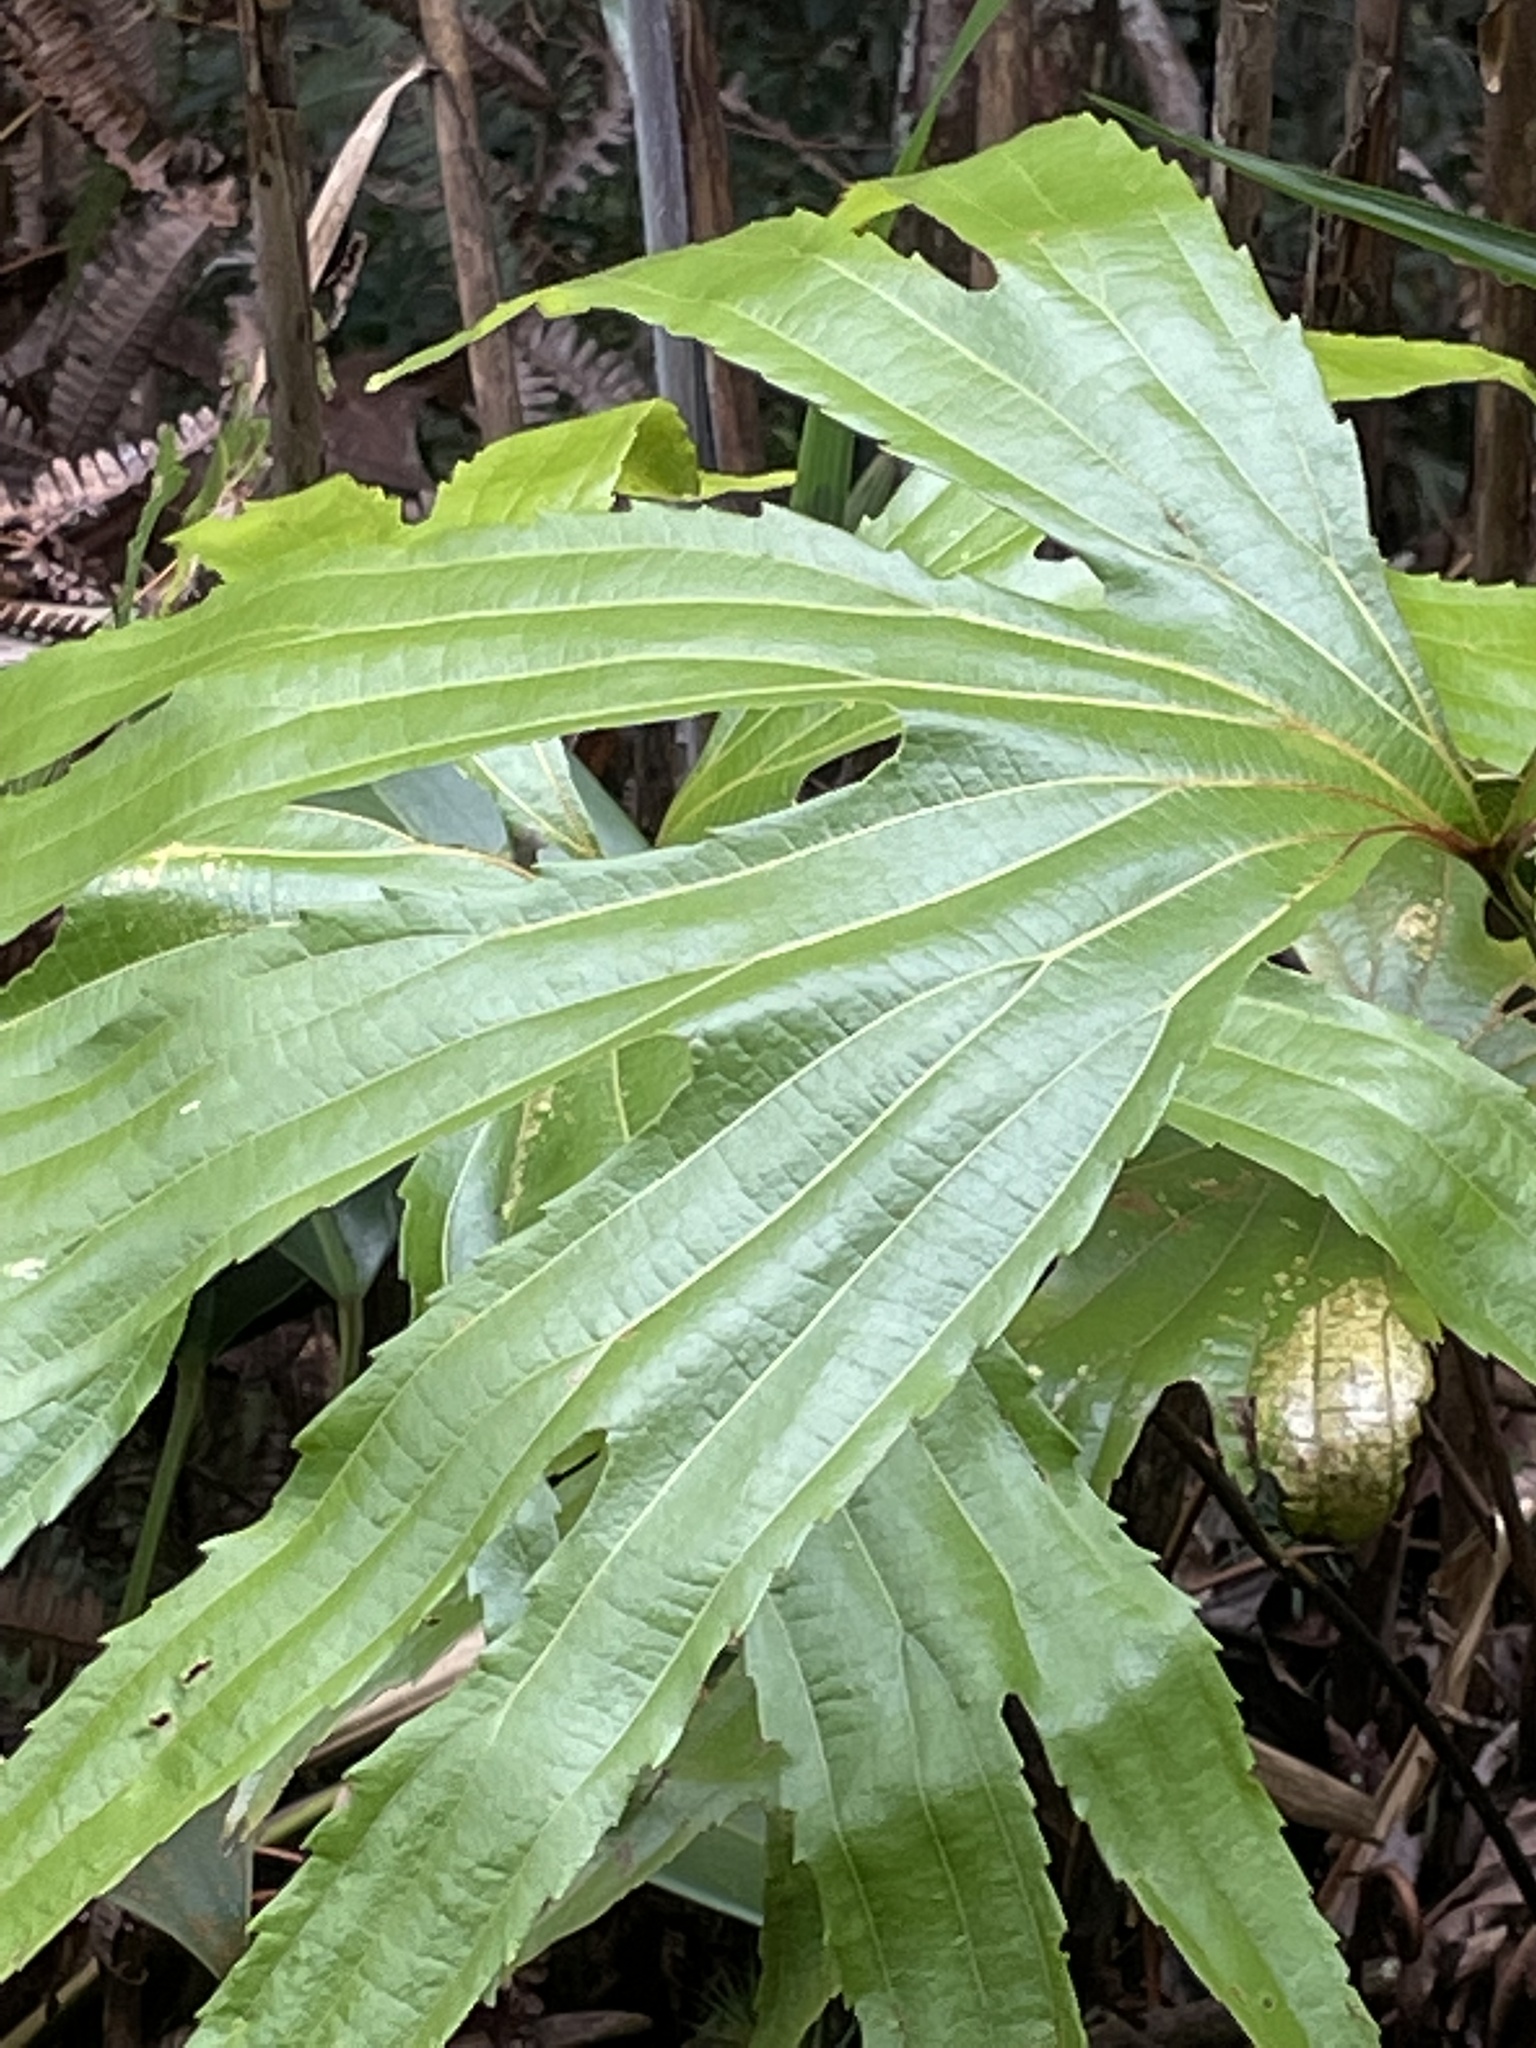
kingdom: Plantae
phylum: Tracheophyta
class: Polypodiopsida
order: Gleicheniales
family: Dipteridaceae
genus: Dipteris
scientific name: Dipteris conjugata
